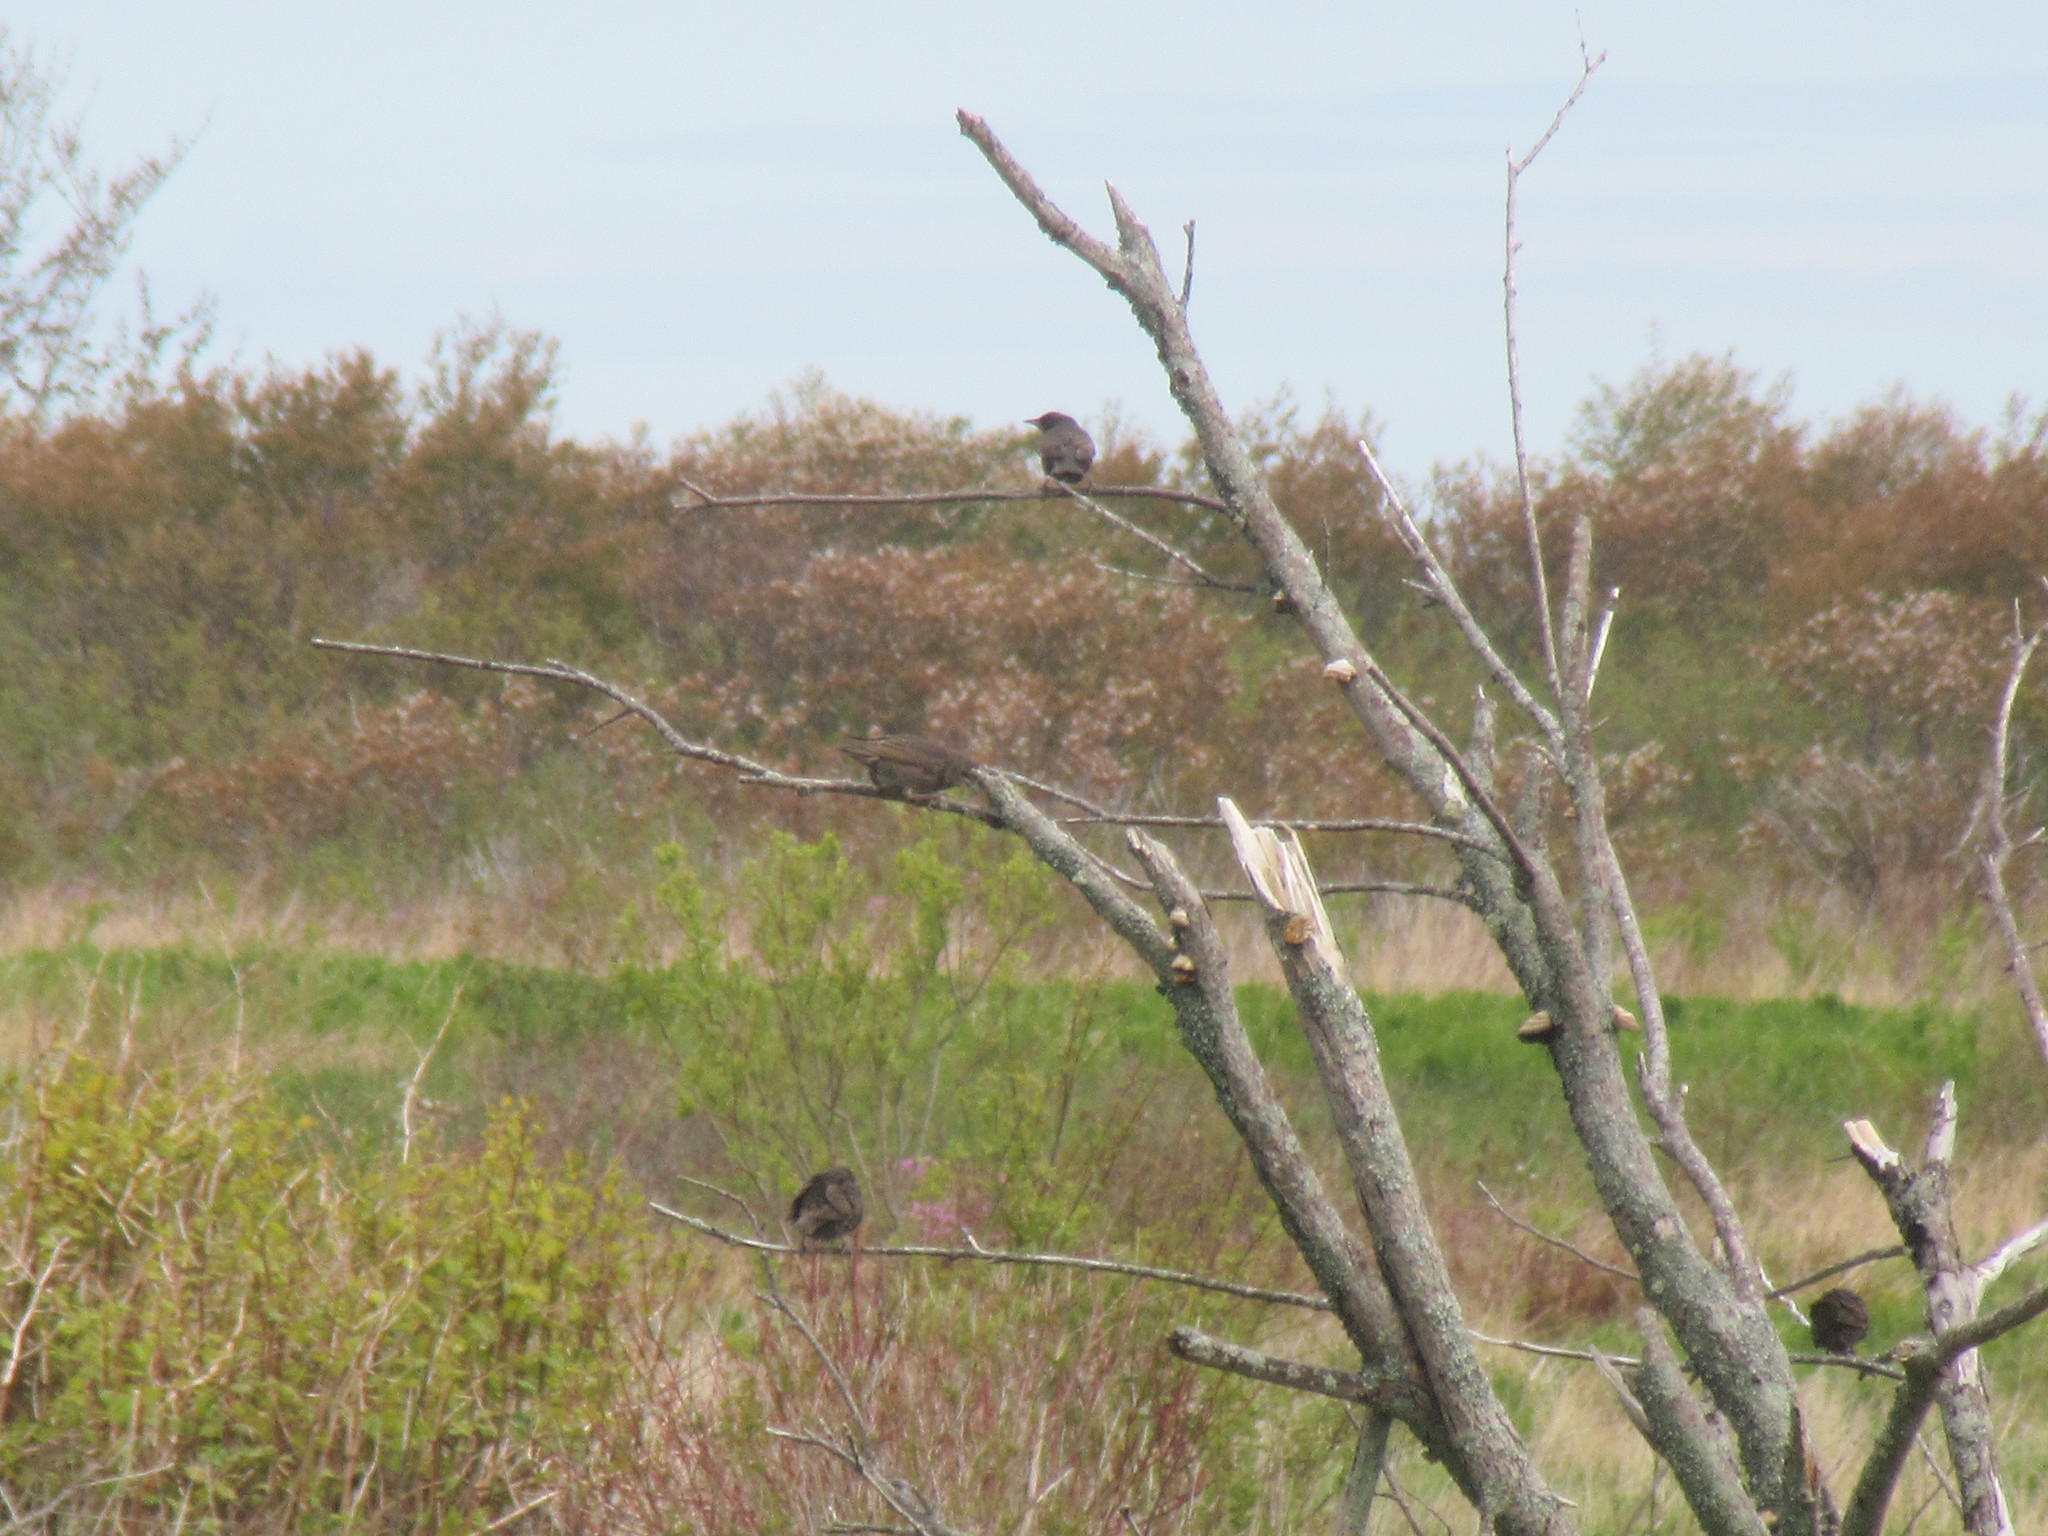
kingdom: Animalia
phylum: Chordata
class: Aves
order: Passeriformes
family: Sturnidae
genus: Sturnus
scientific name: Sturnus vulgaris
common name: Common starling
